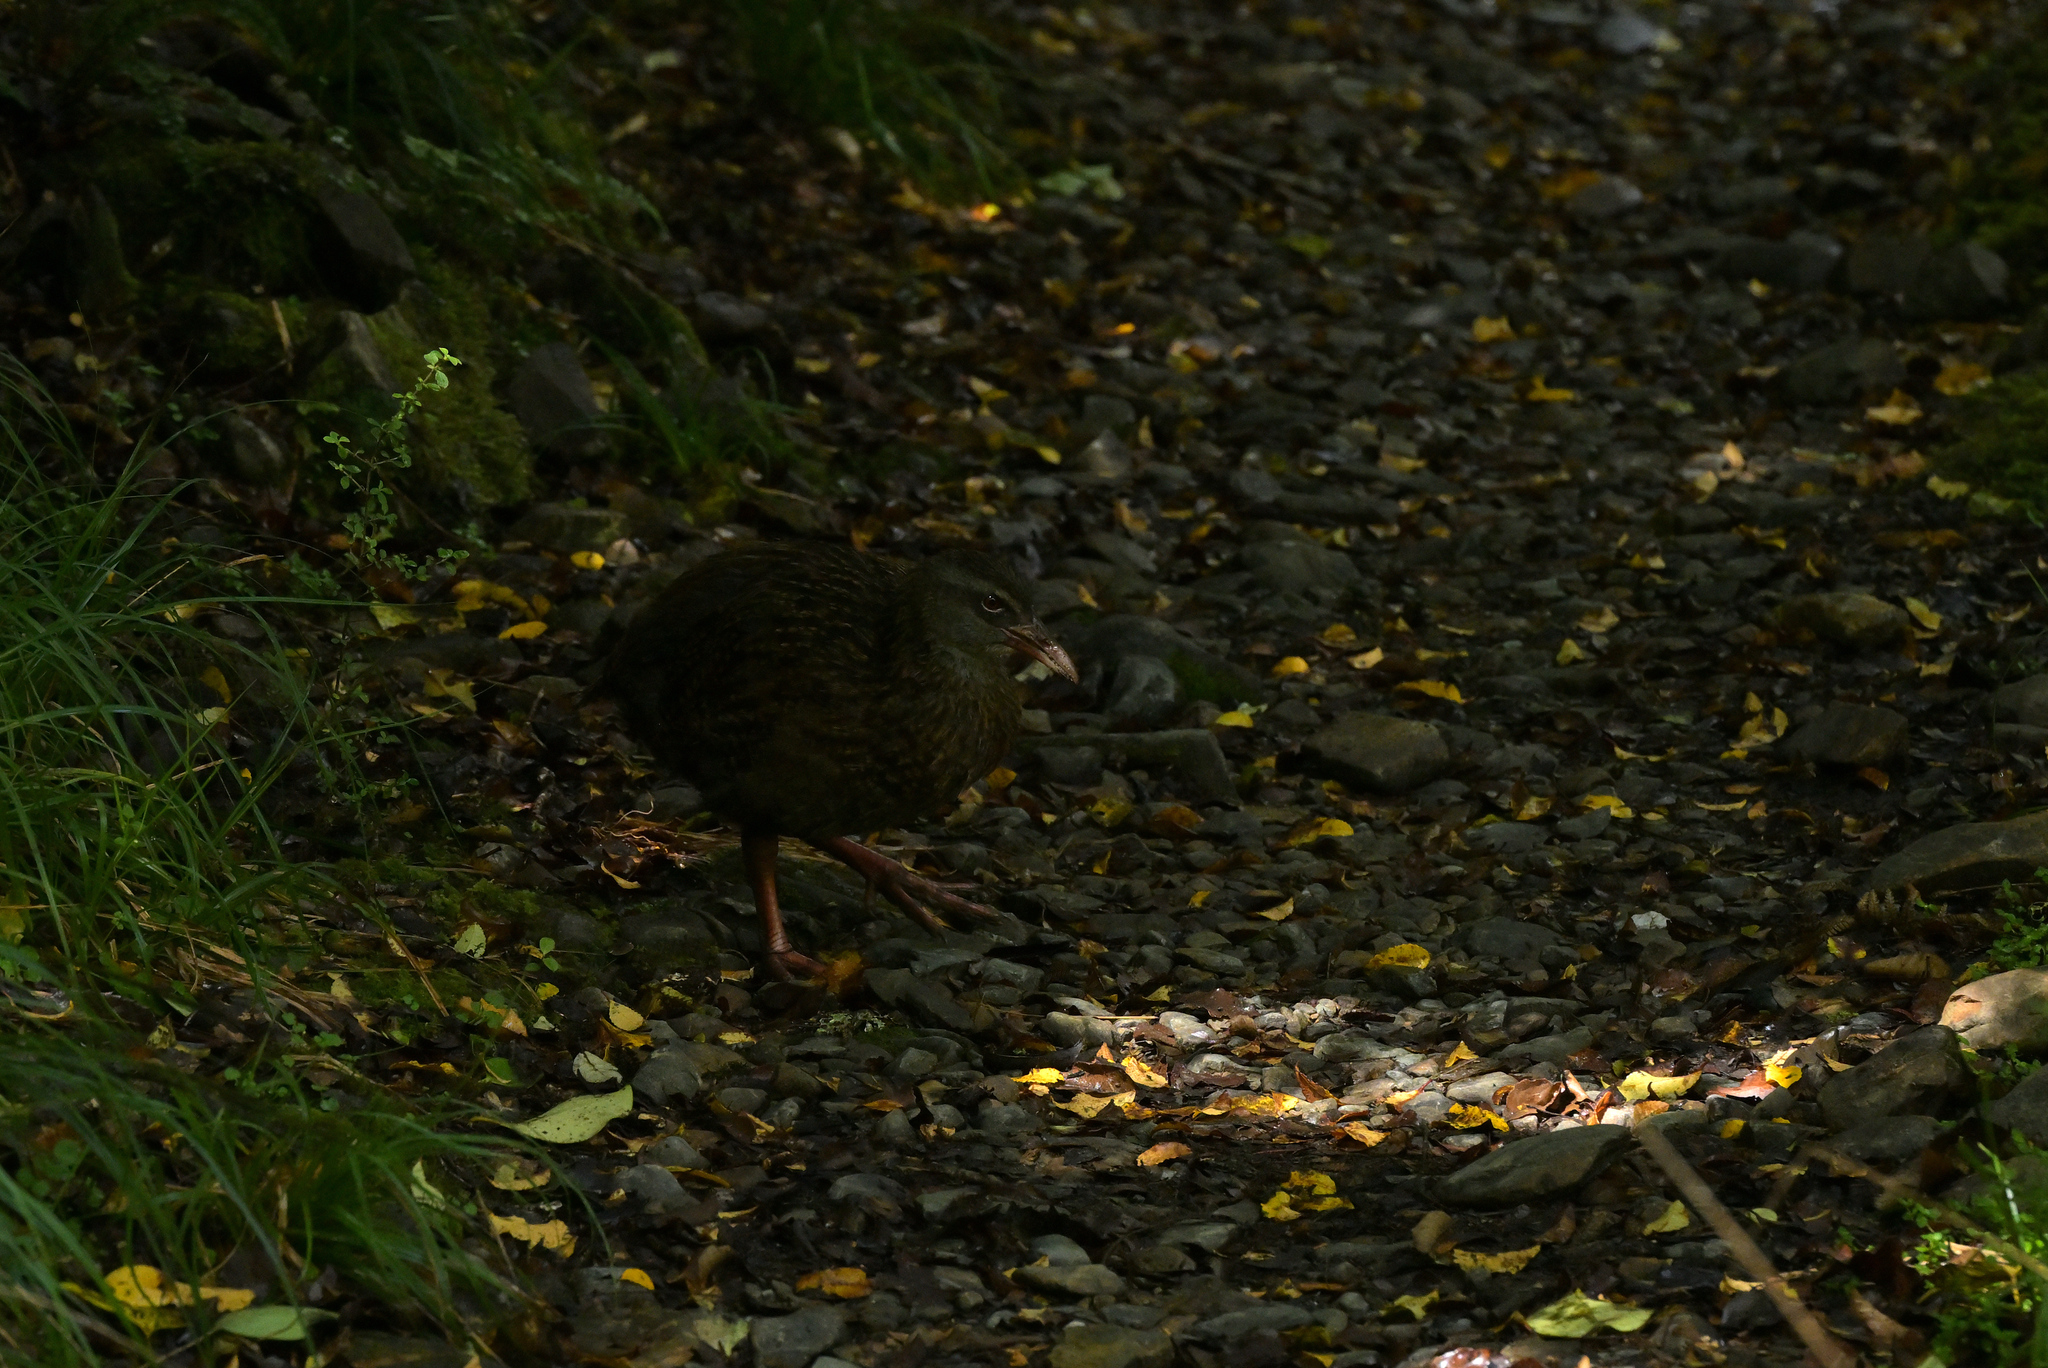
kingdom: Animalia
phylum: Chordata
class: Aves
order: Gruiformes
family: Rallidae
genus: Gallirallus
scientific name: Gallirallus australis
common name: Weka
